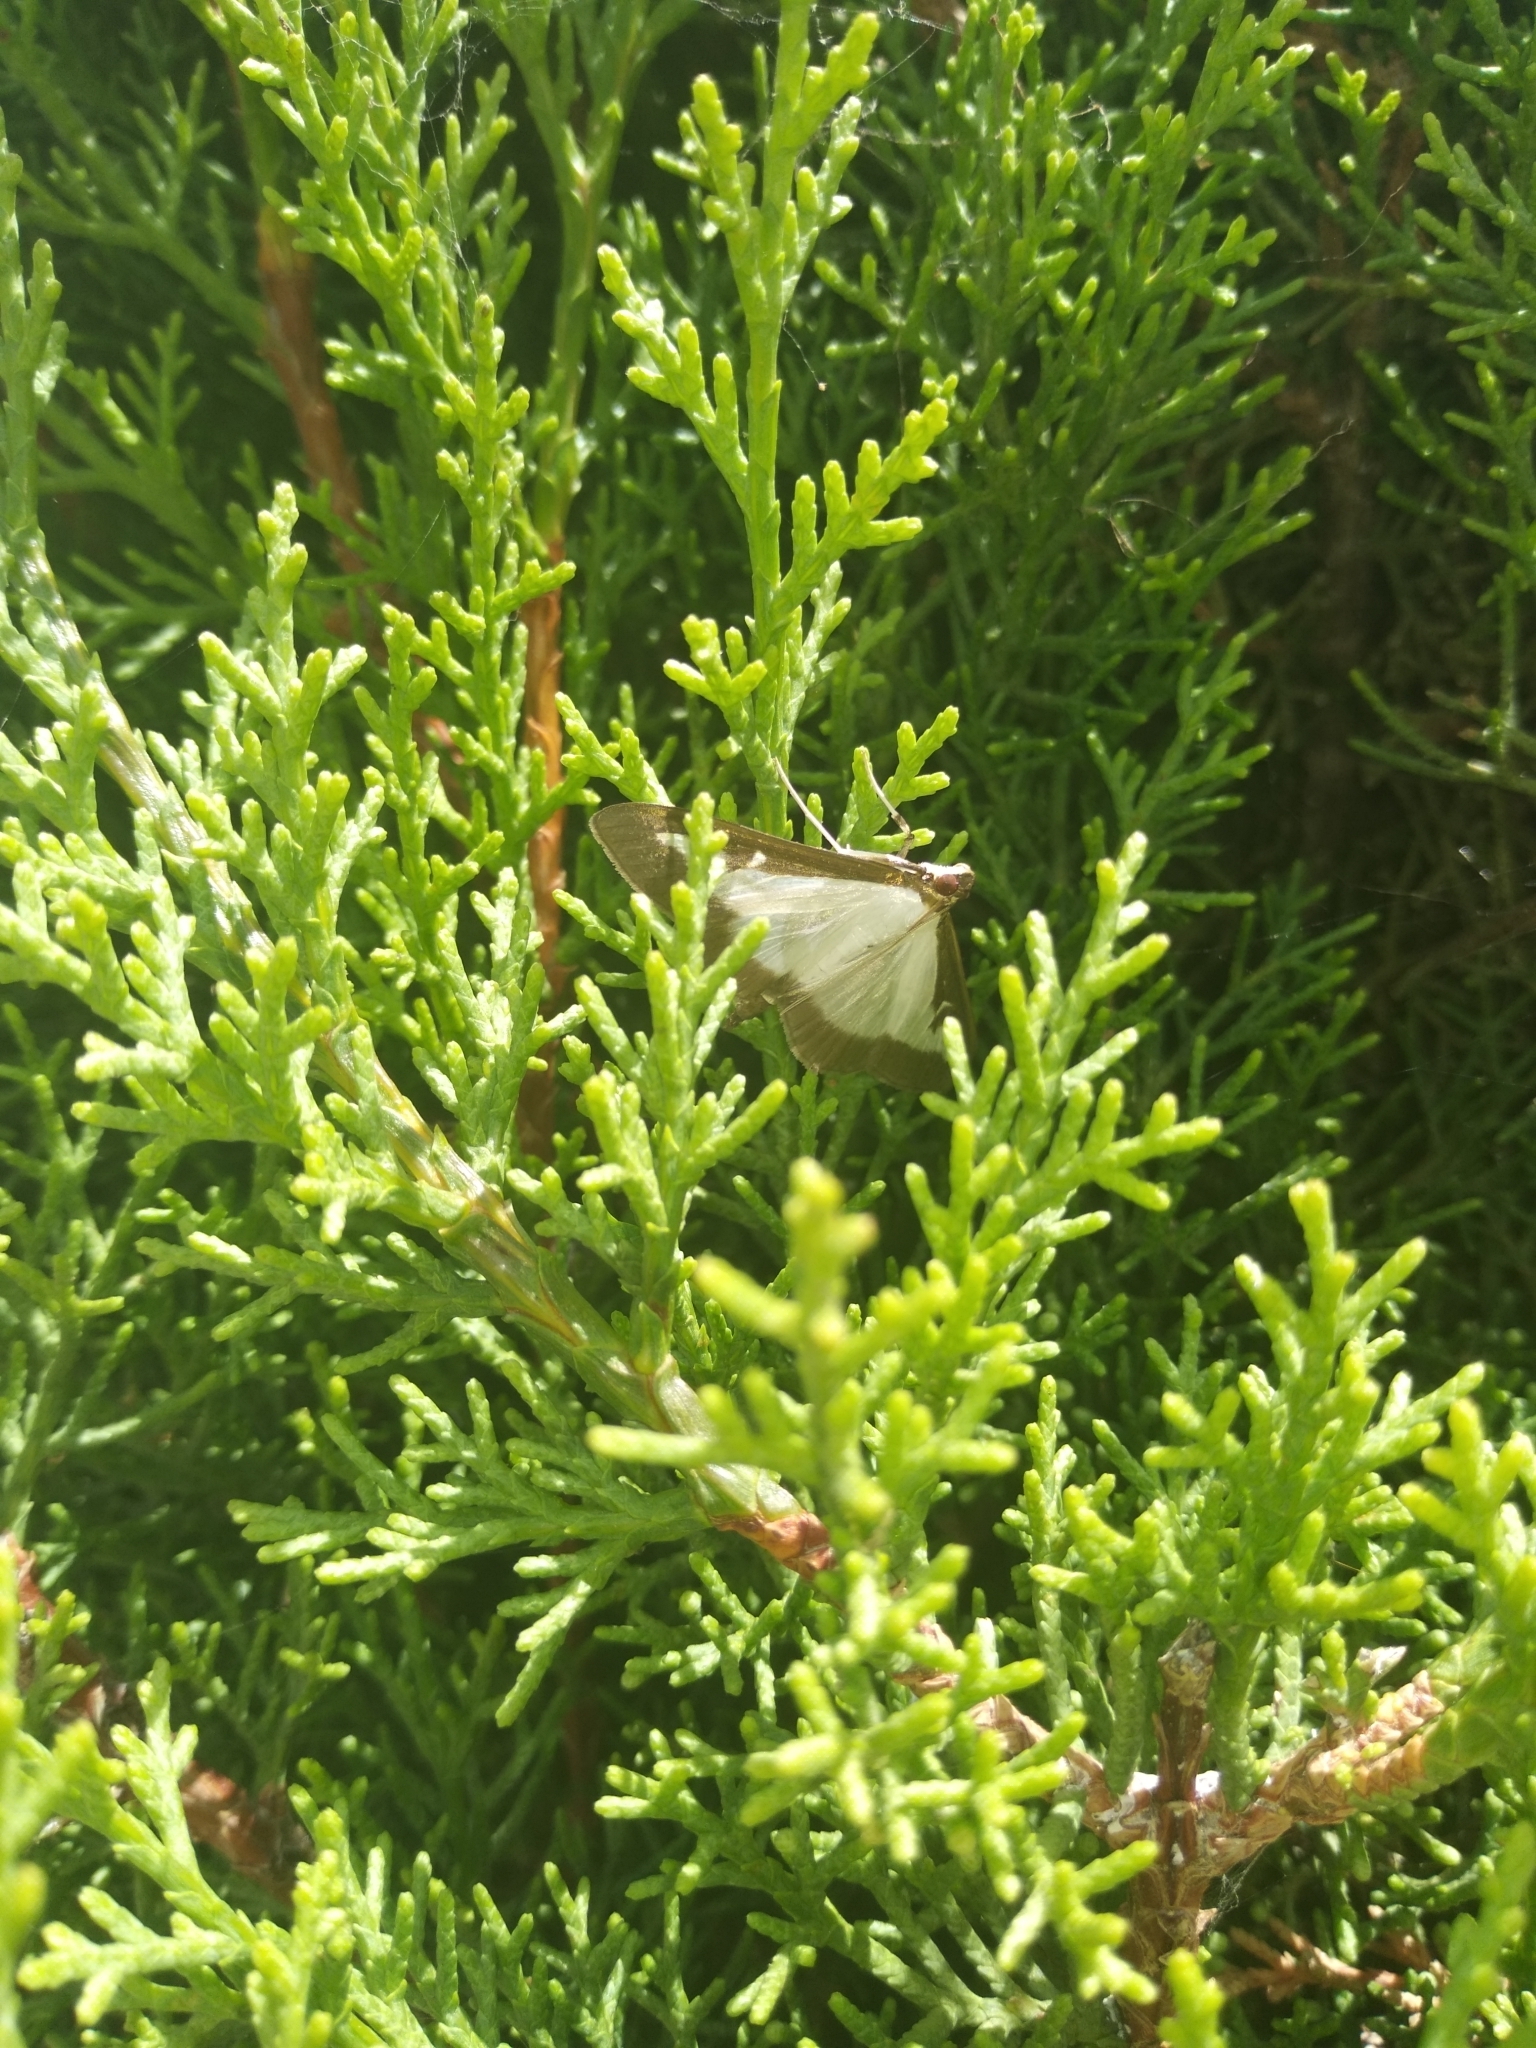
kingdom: Animalia
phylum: Arthropoda
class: Insecta
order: Lepidoptera
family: Crambidae
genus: Cydalima
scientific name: Cydalima perspectalis
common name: Box tree moth
